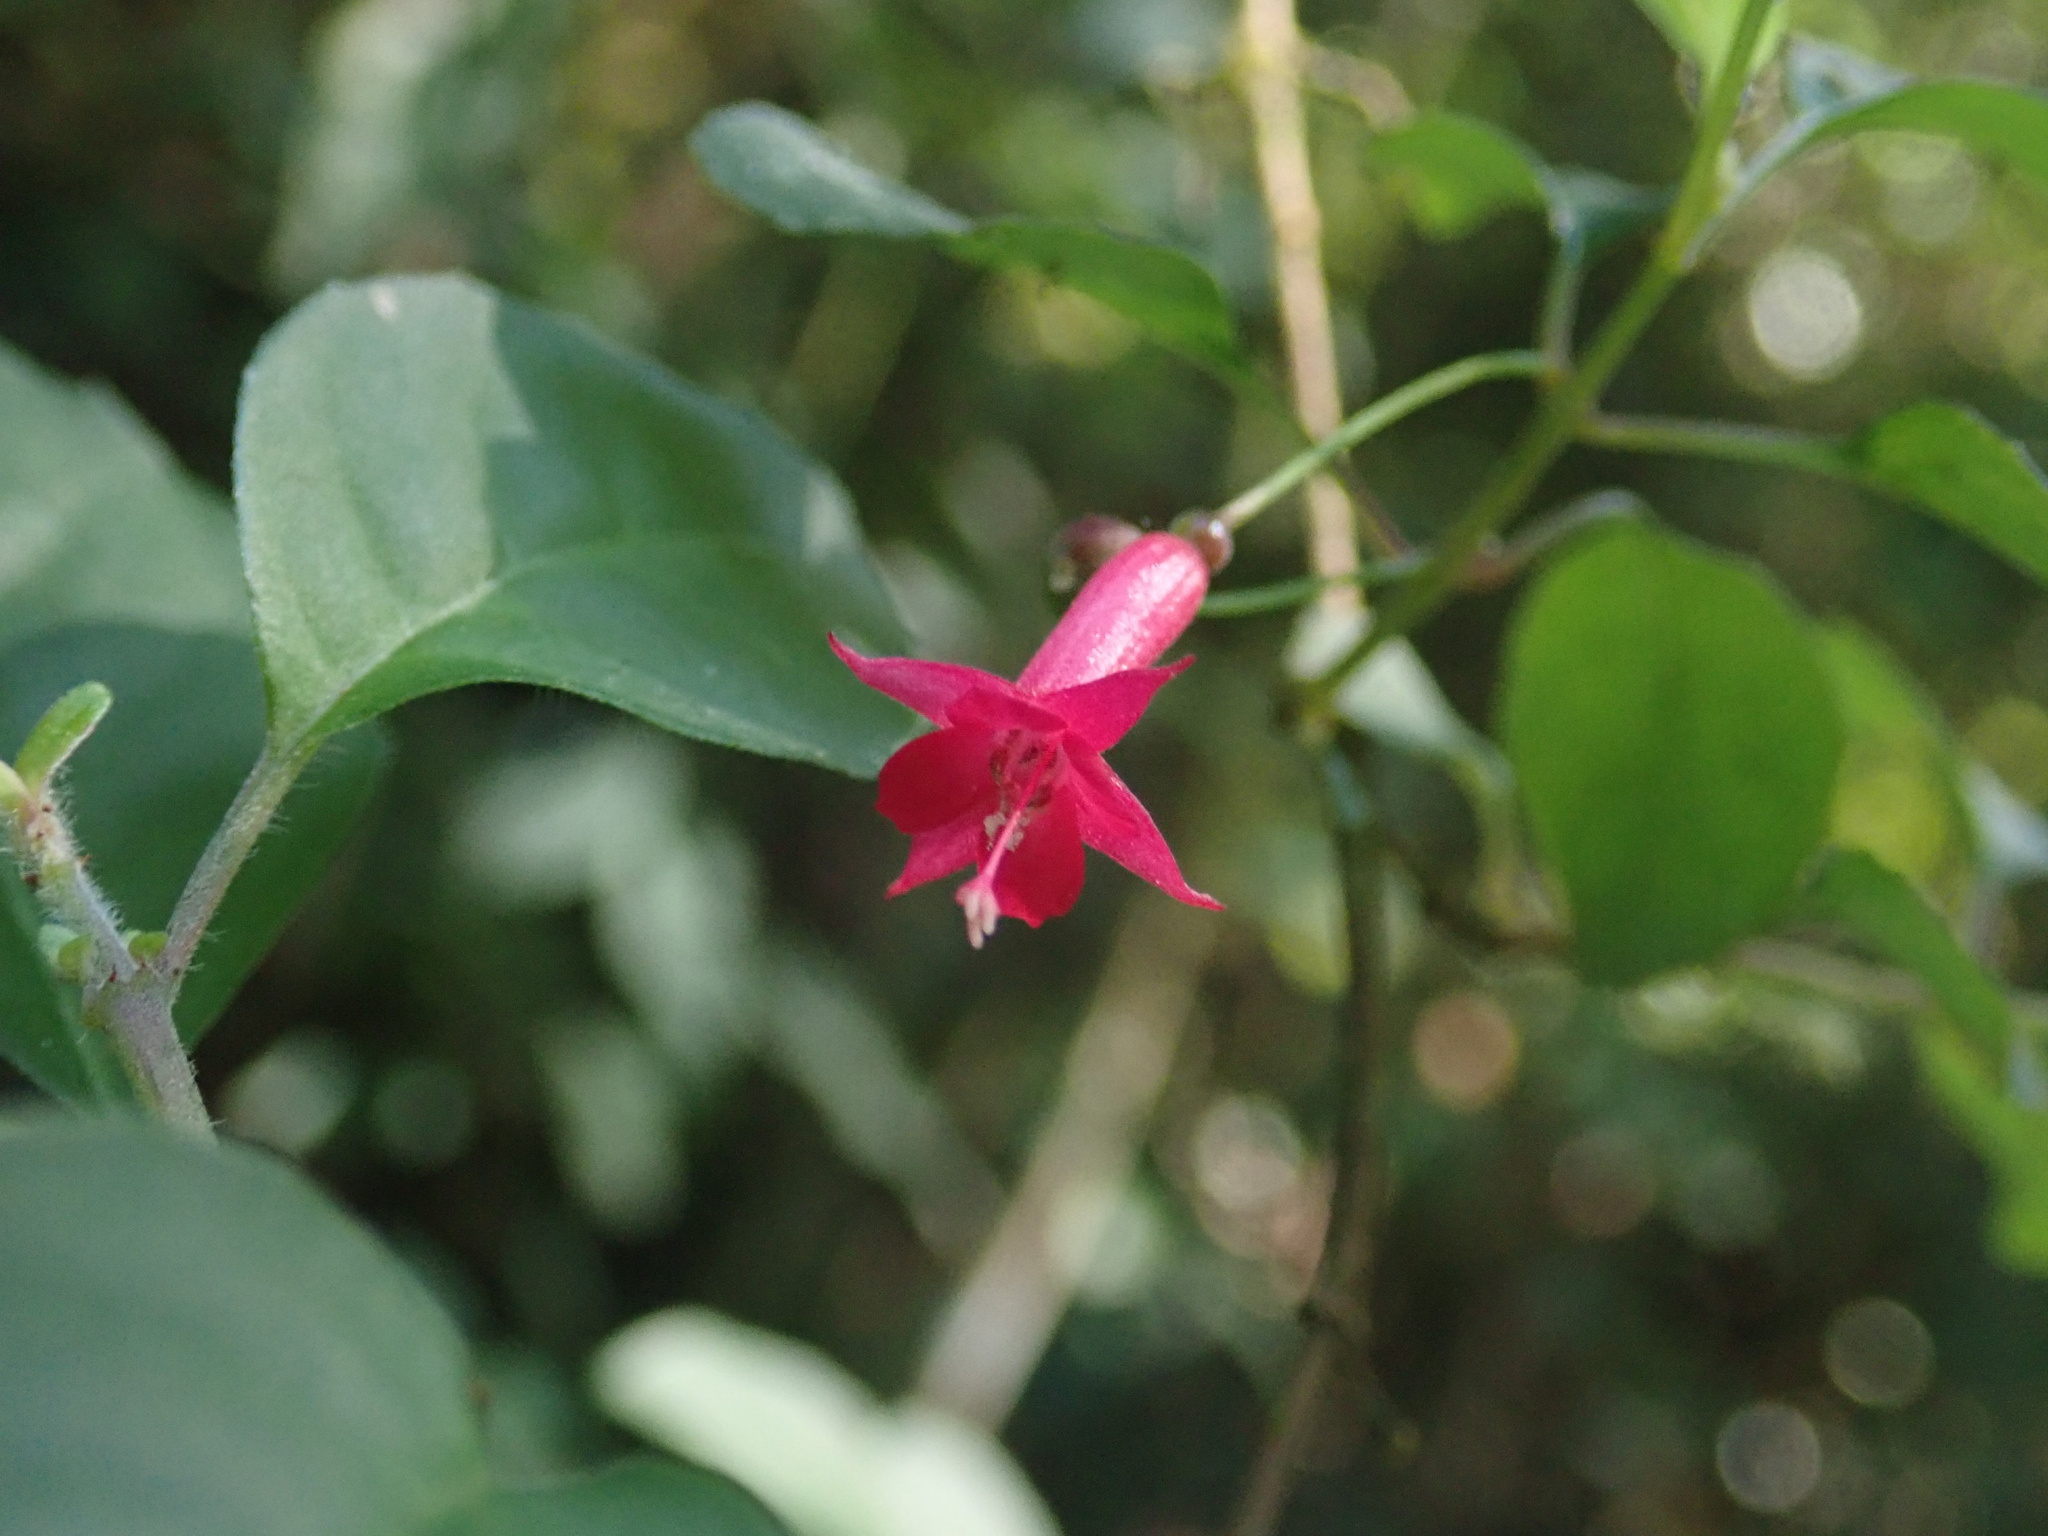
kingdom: Plantae
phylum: Tracheophyta
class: Magnoliopsida
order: Myrtales
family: Onagraceae
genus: Fuchsia
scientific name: Fuchsia microphylla
